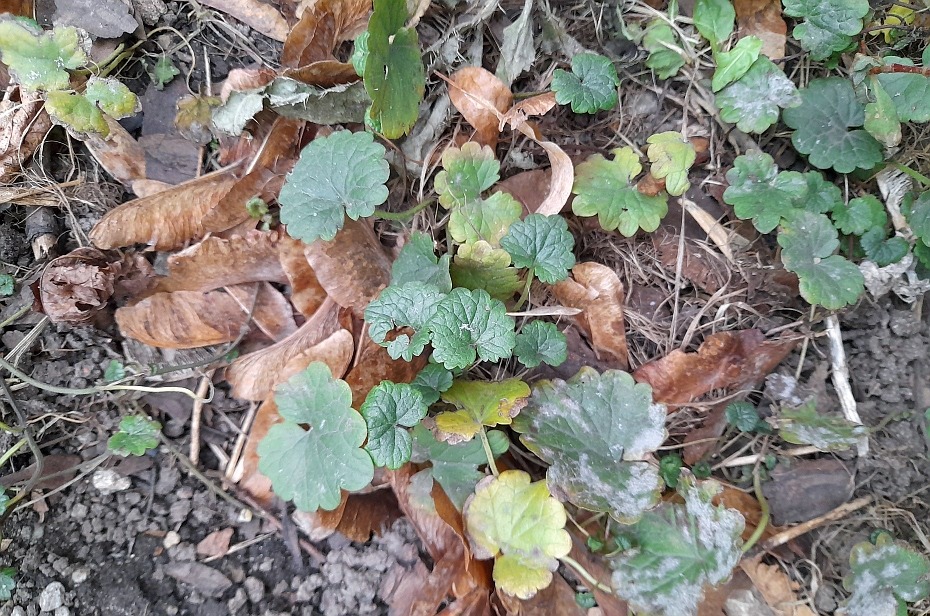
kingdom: Plantae
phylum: Tracheophyta
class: Magnoliopsida
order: Lamiales
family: Lamiaceae
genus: Glechoma
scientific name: Glechoma hederacea
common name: Ground ivy
